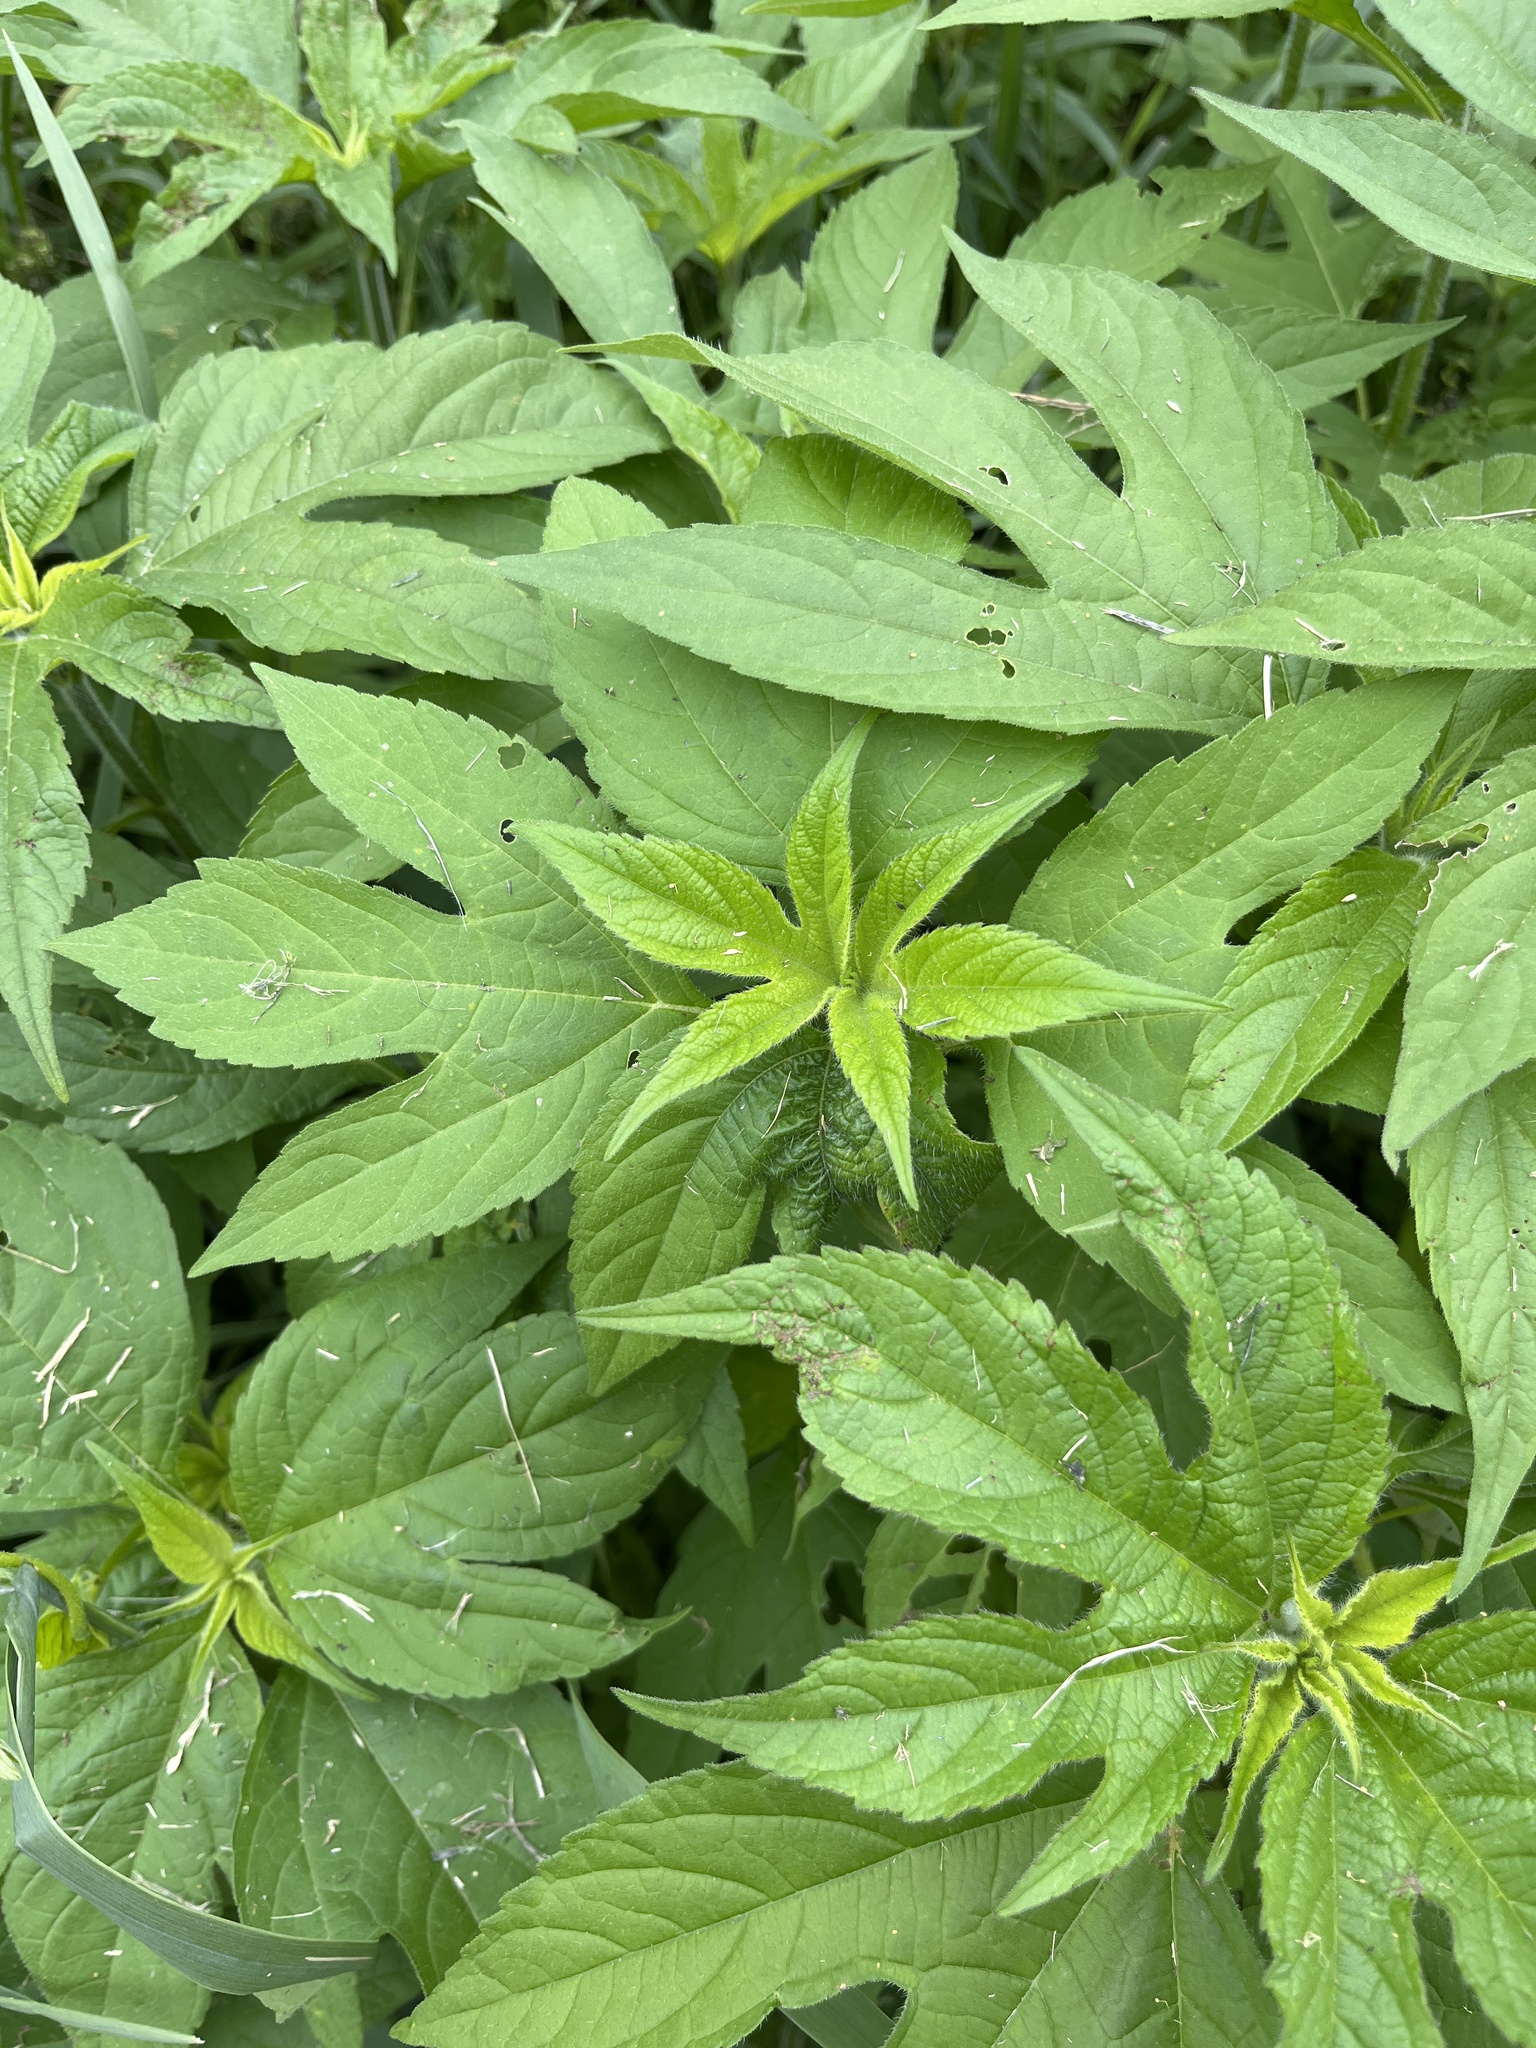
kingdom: Plantae
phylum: Tracheophyta
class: Magnoliopsida
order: Asterales
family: Asteraceae
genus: Ambrosia
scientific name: Ambrosia trifida
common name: Giant ragweed
